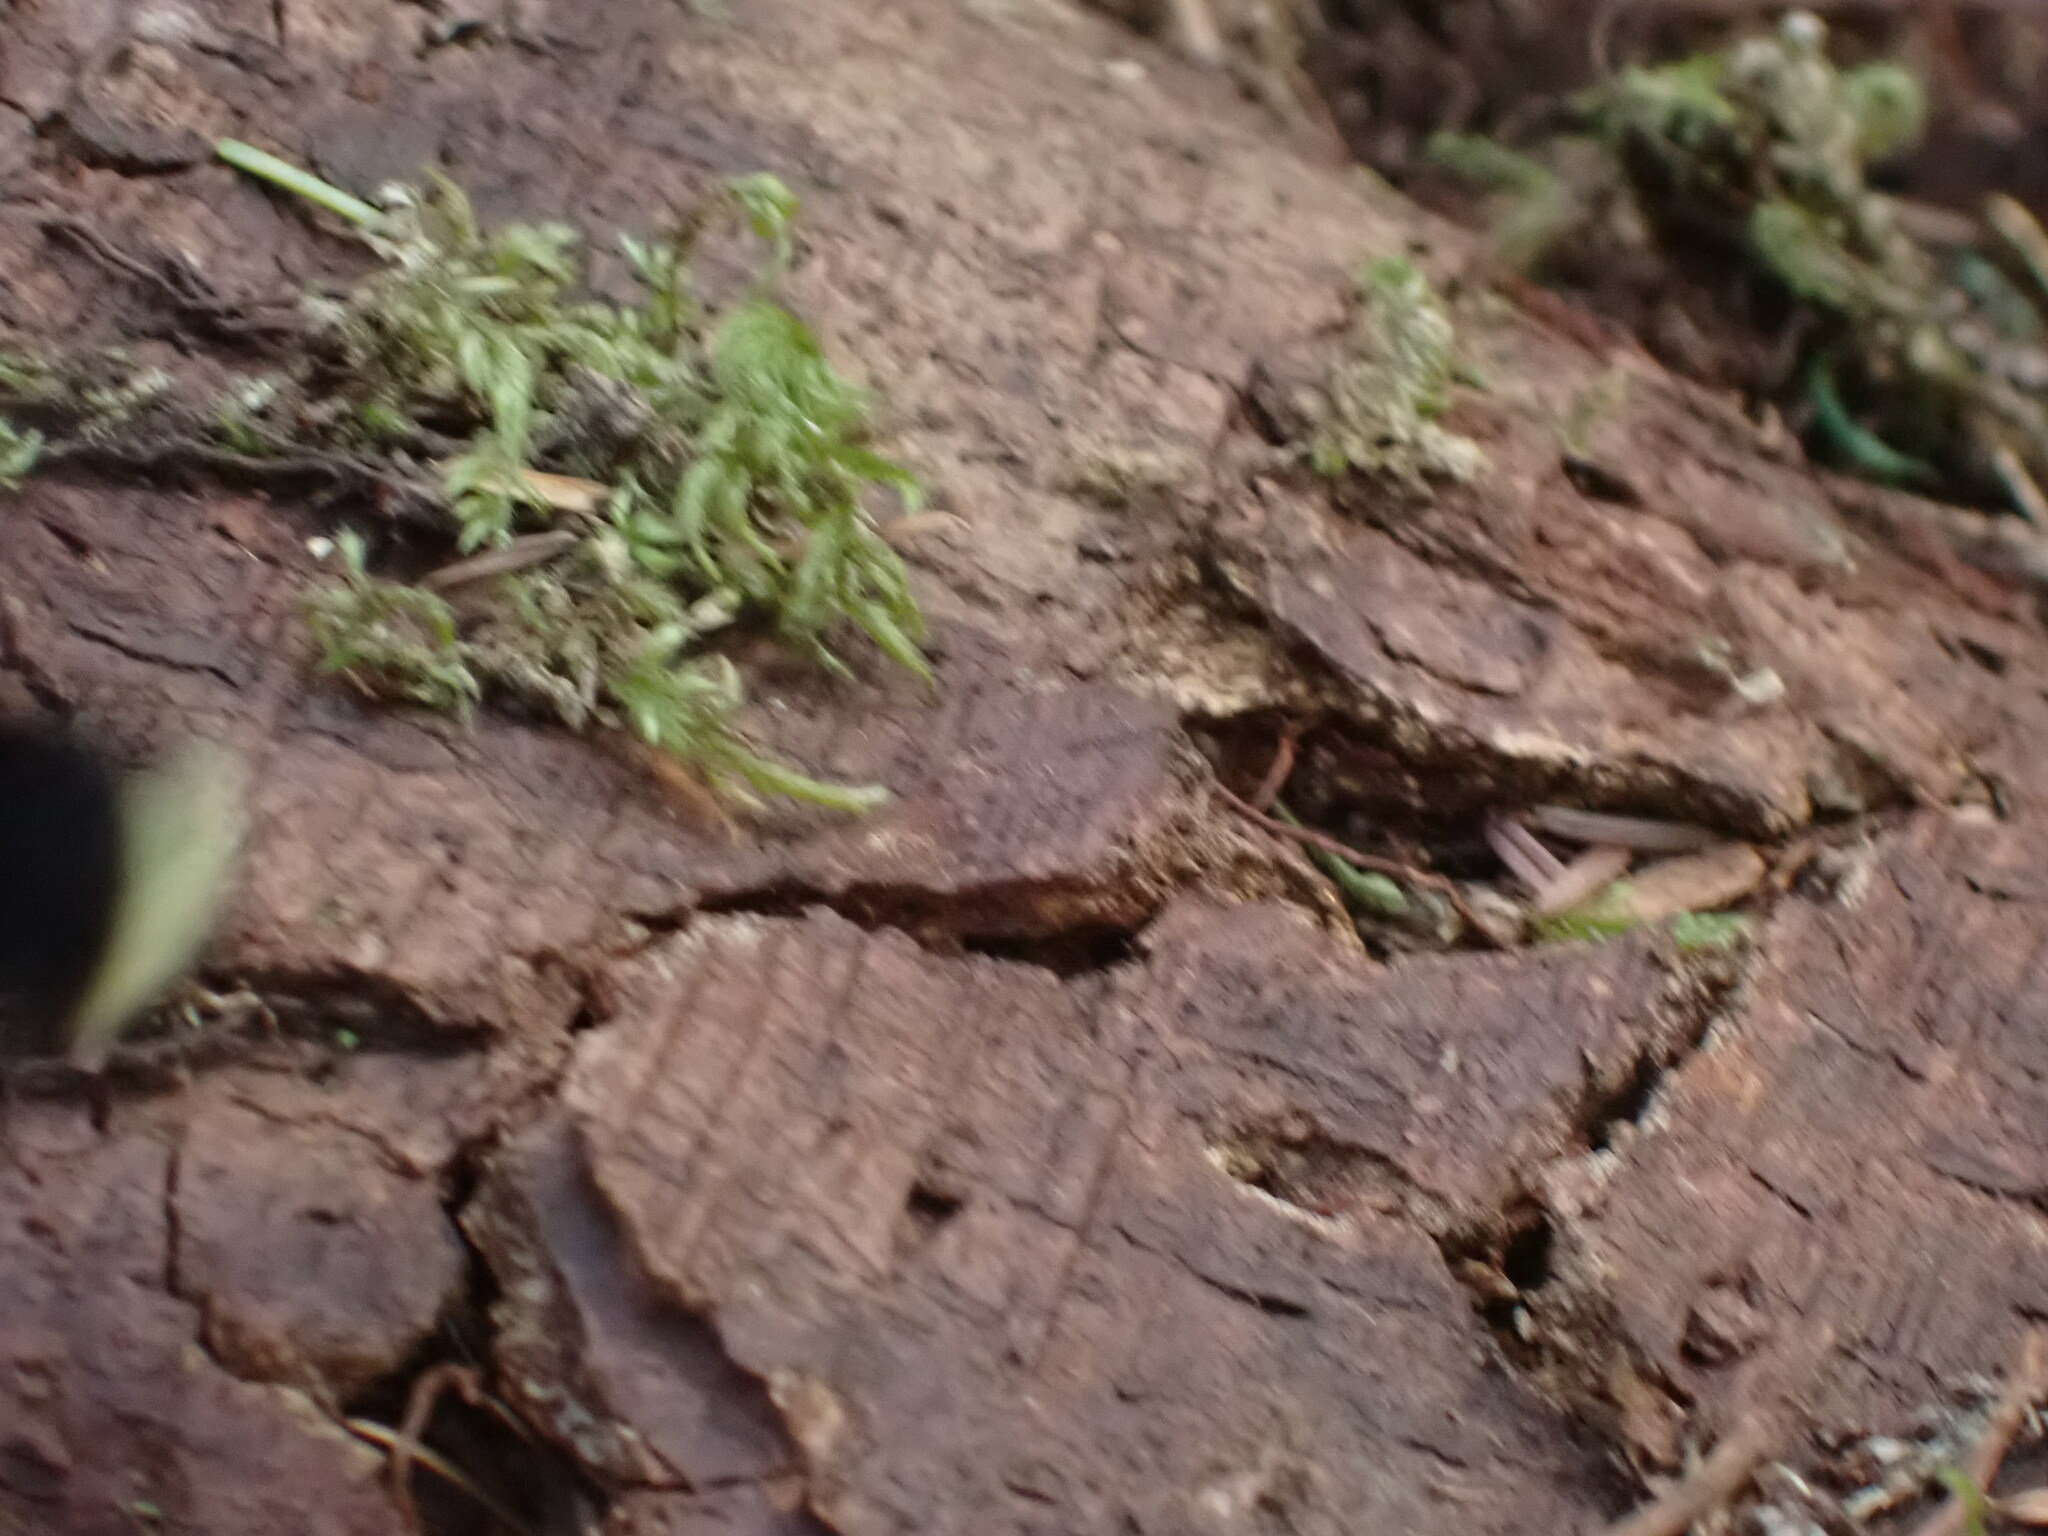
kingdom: Animalia
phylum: Arthropoda
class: Insecta
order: Hymenoptera
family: Apidae
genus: Bombus
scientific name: Bombus vosnesenskii
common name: Vosnesensky bumble bee
